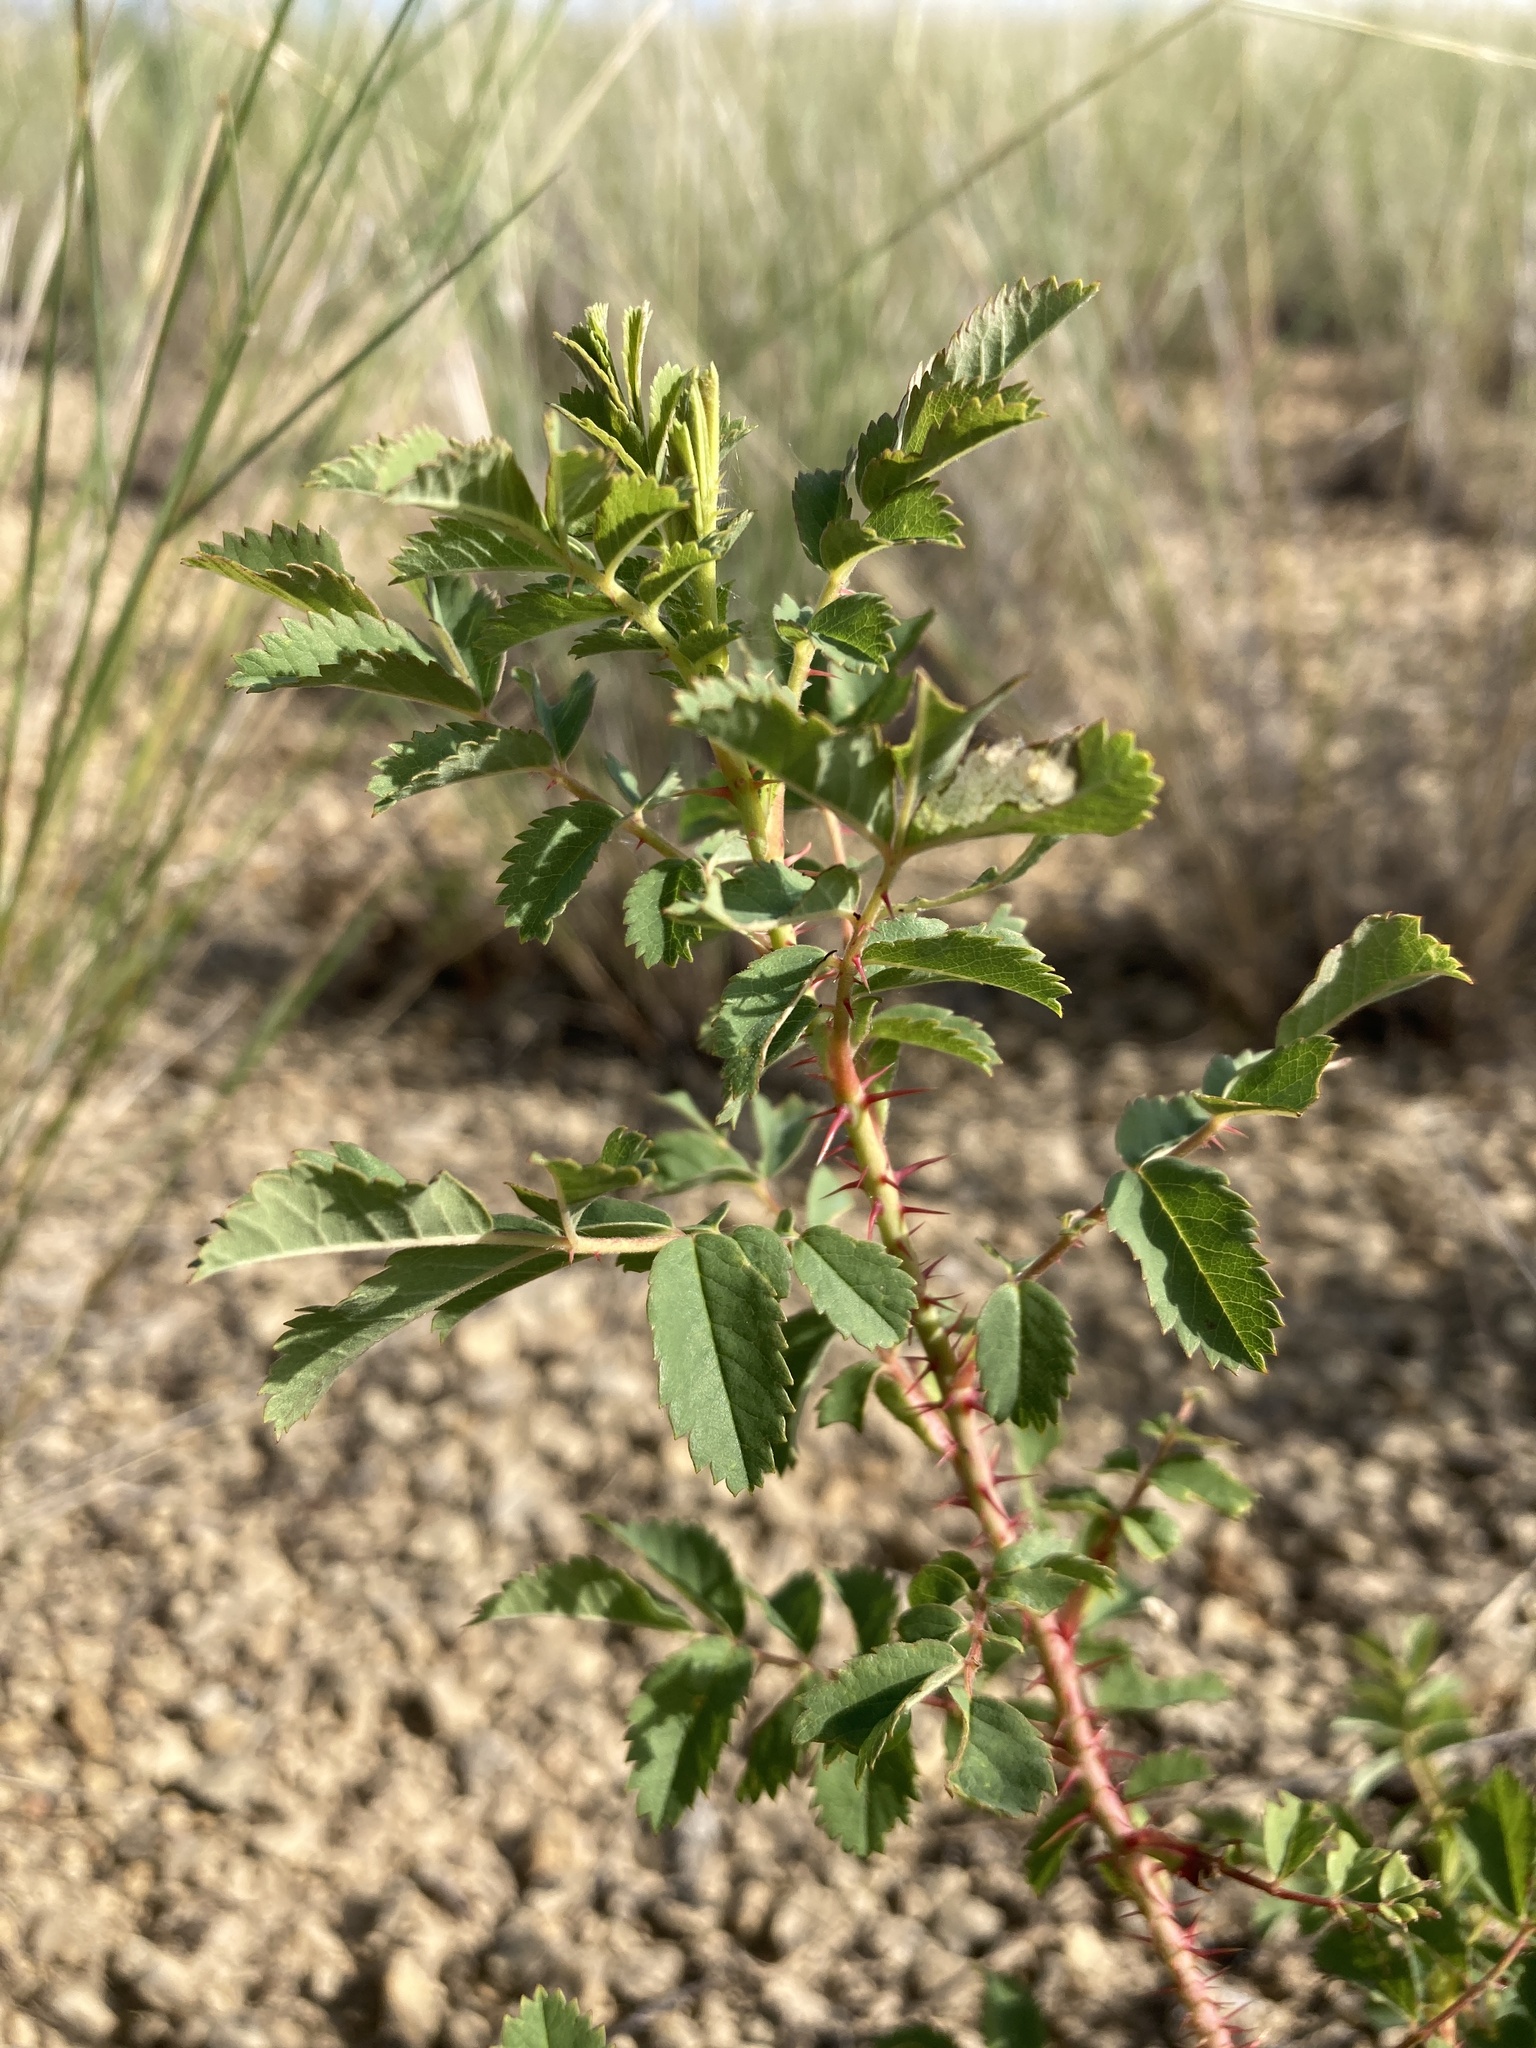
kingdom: Plantae
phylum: Tracheophyta
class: Magnoliopsida
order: Rosales
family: Rosaceae
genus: Rosa
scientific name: Rosa arkansana
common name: Prairie rose
